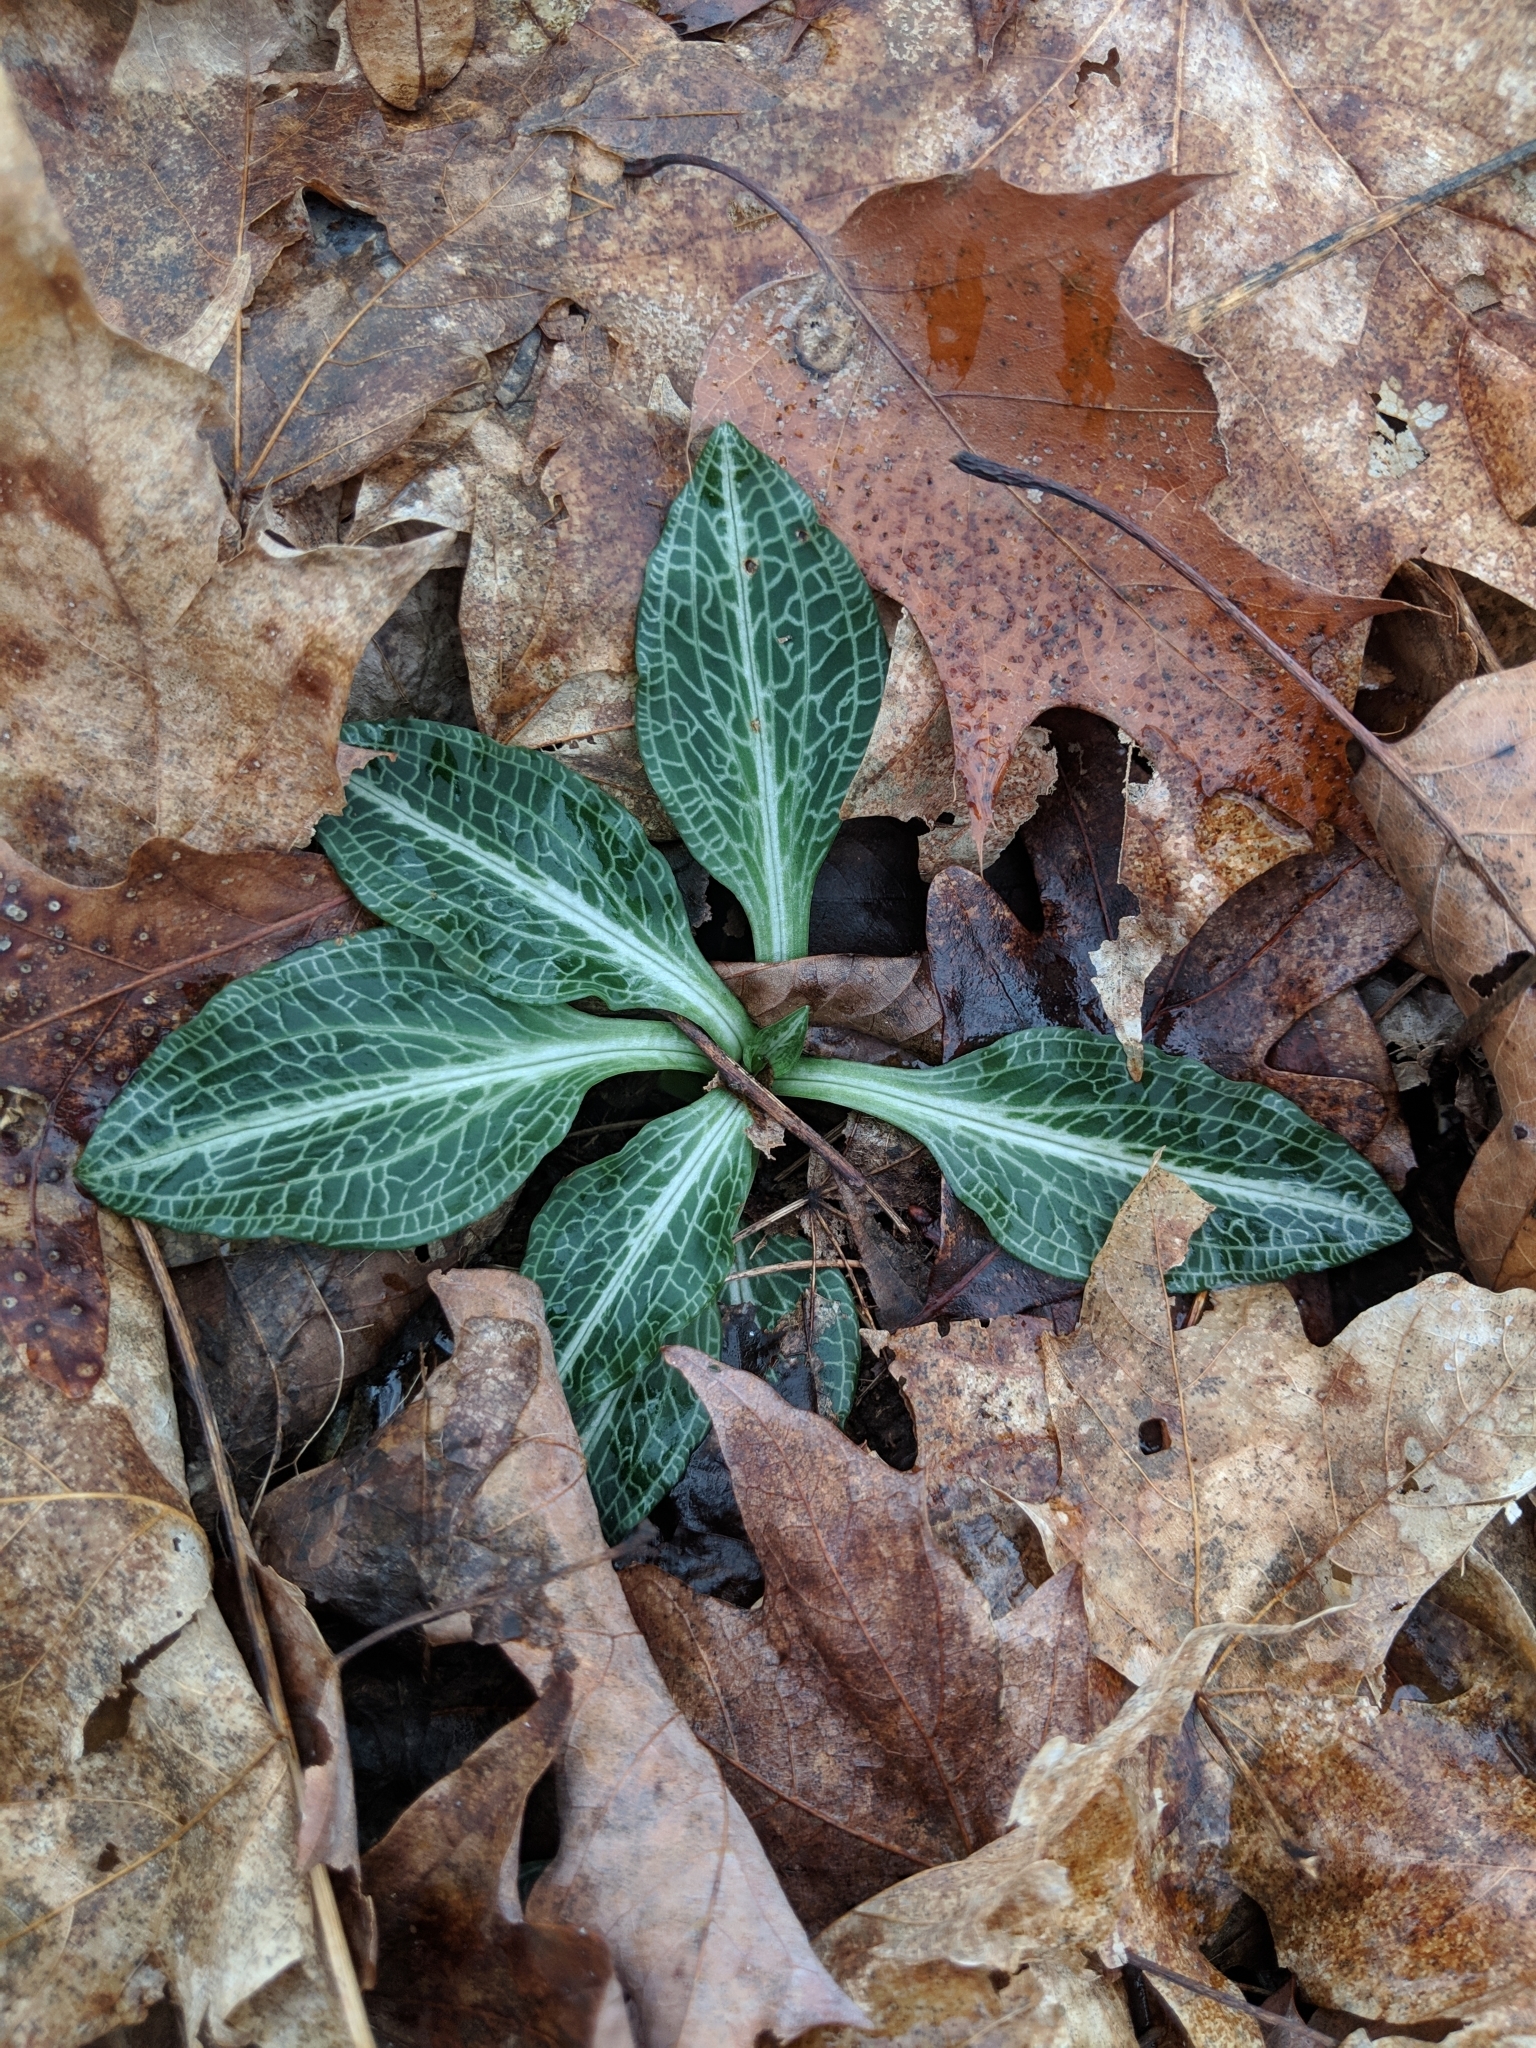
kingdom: Plantae
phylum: Tracheophyta
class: Liliopsida
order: Asparagales
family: Orchidaceae
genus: Goodyera
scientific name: Goodyera pubescens
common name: Downy rattlesnake-plantain
